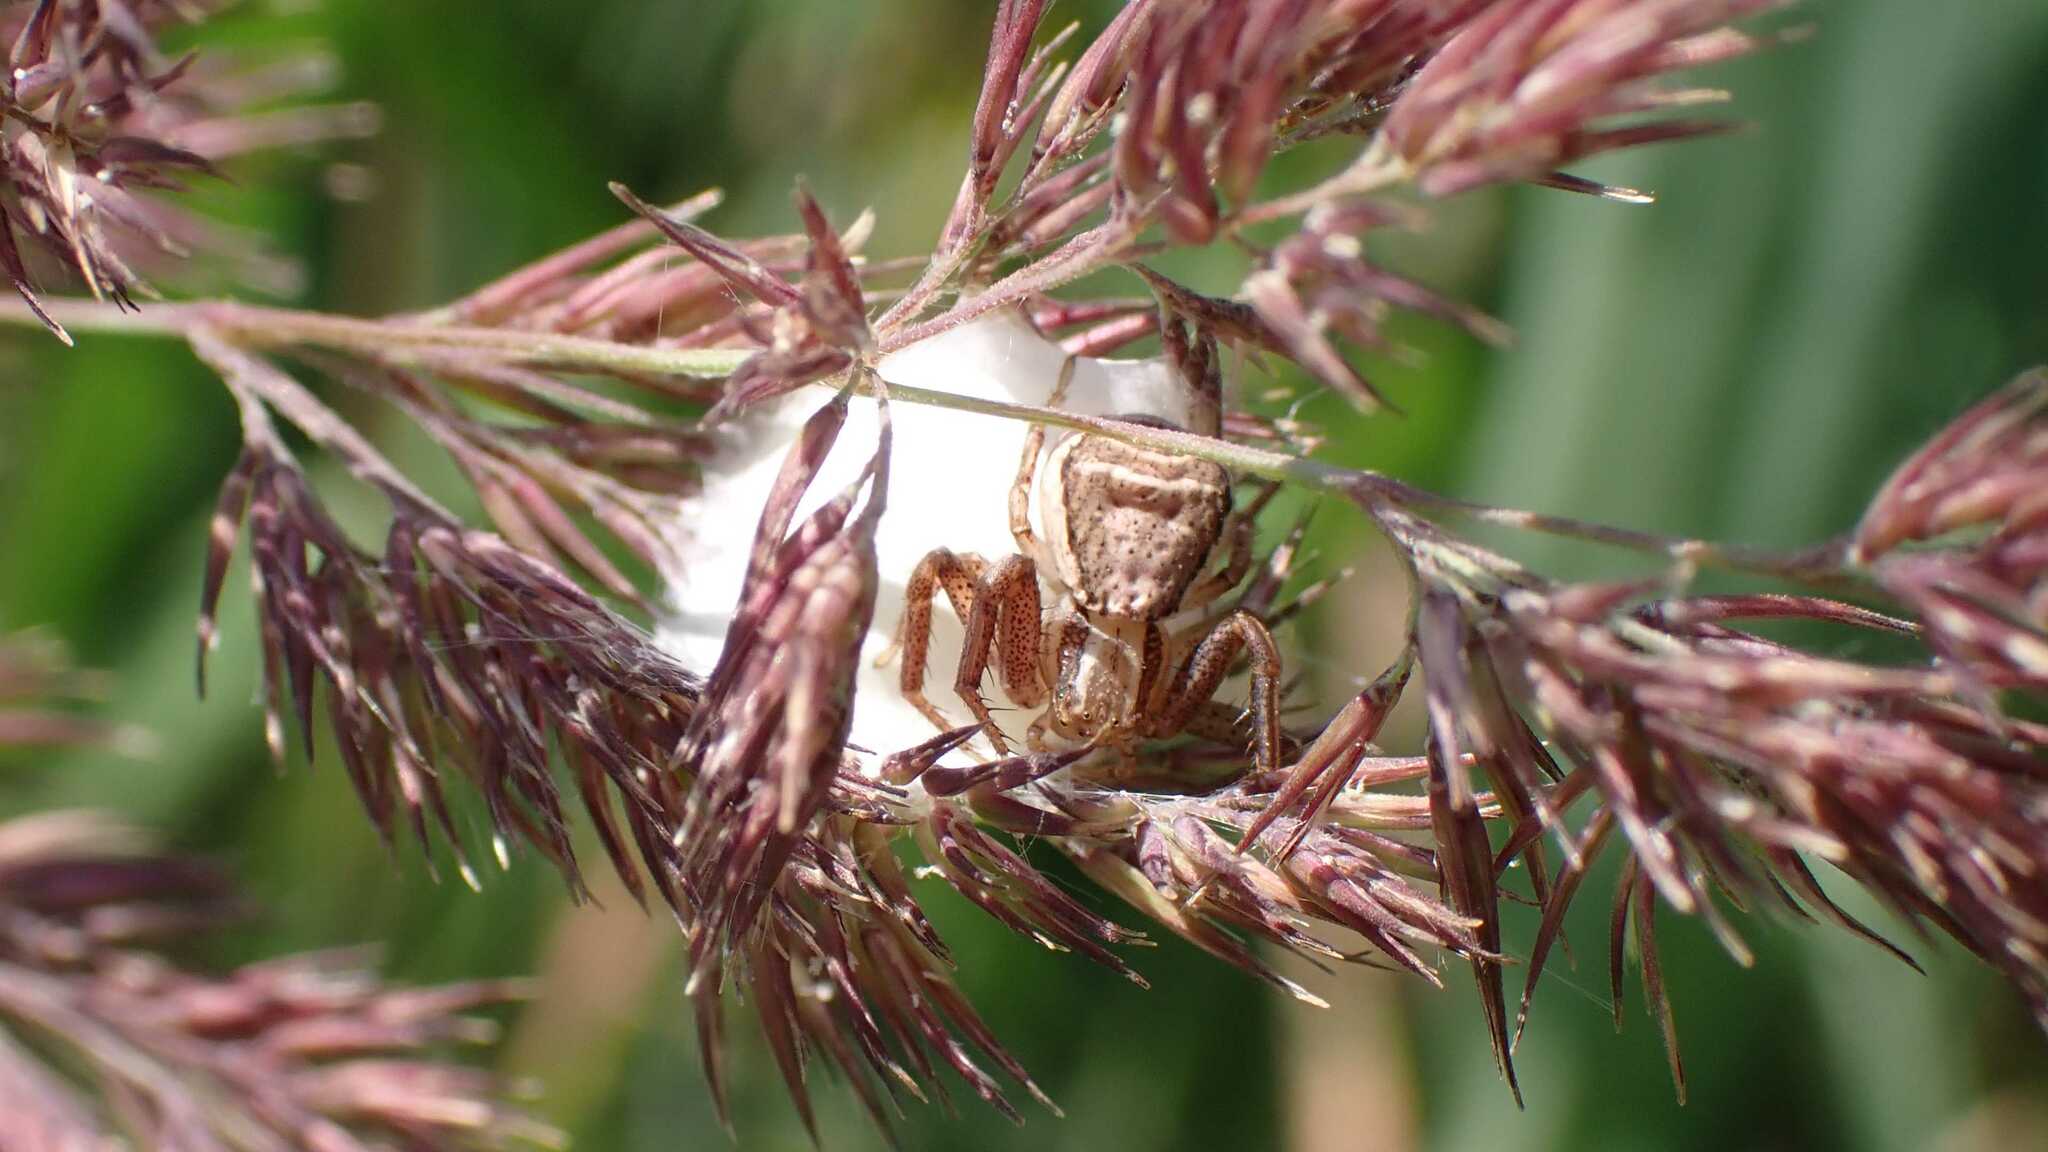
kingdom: Animalia
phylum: Arthropoda
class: Arachnida
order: Araneae
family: Thomisidae
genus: Xysticus
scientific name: Xysticus ulmi
